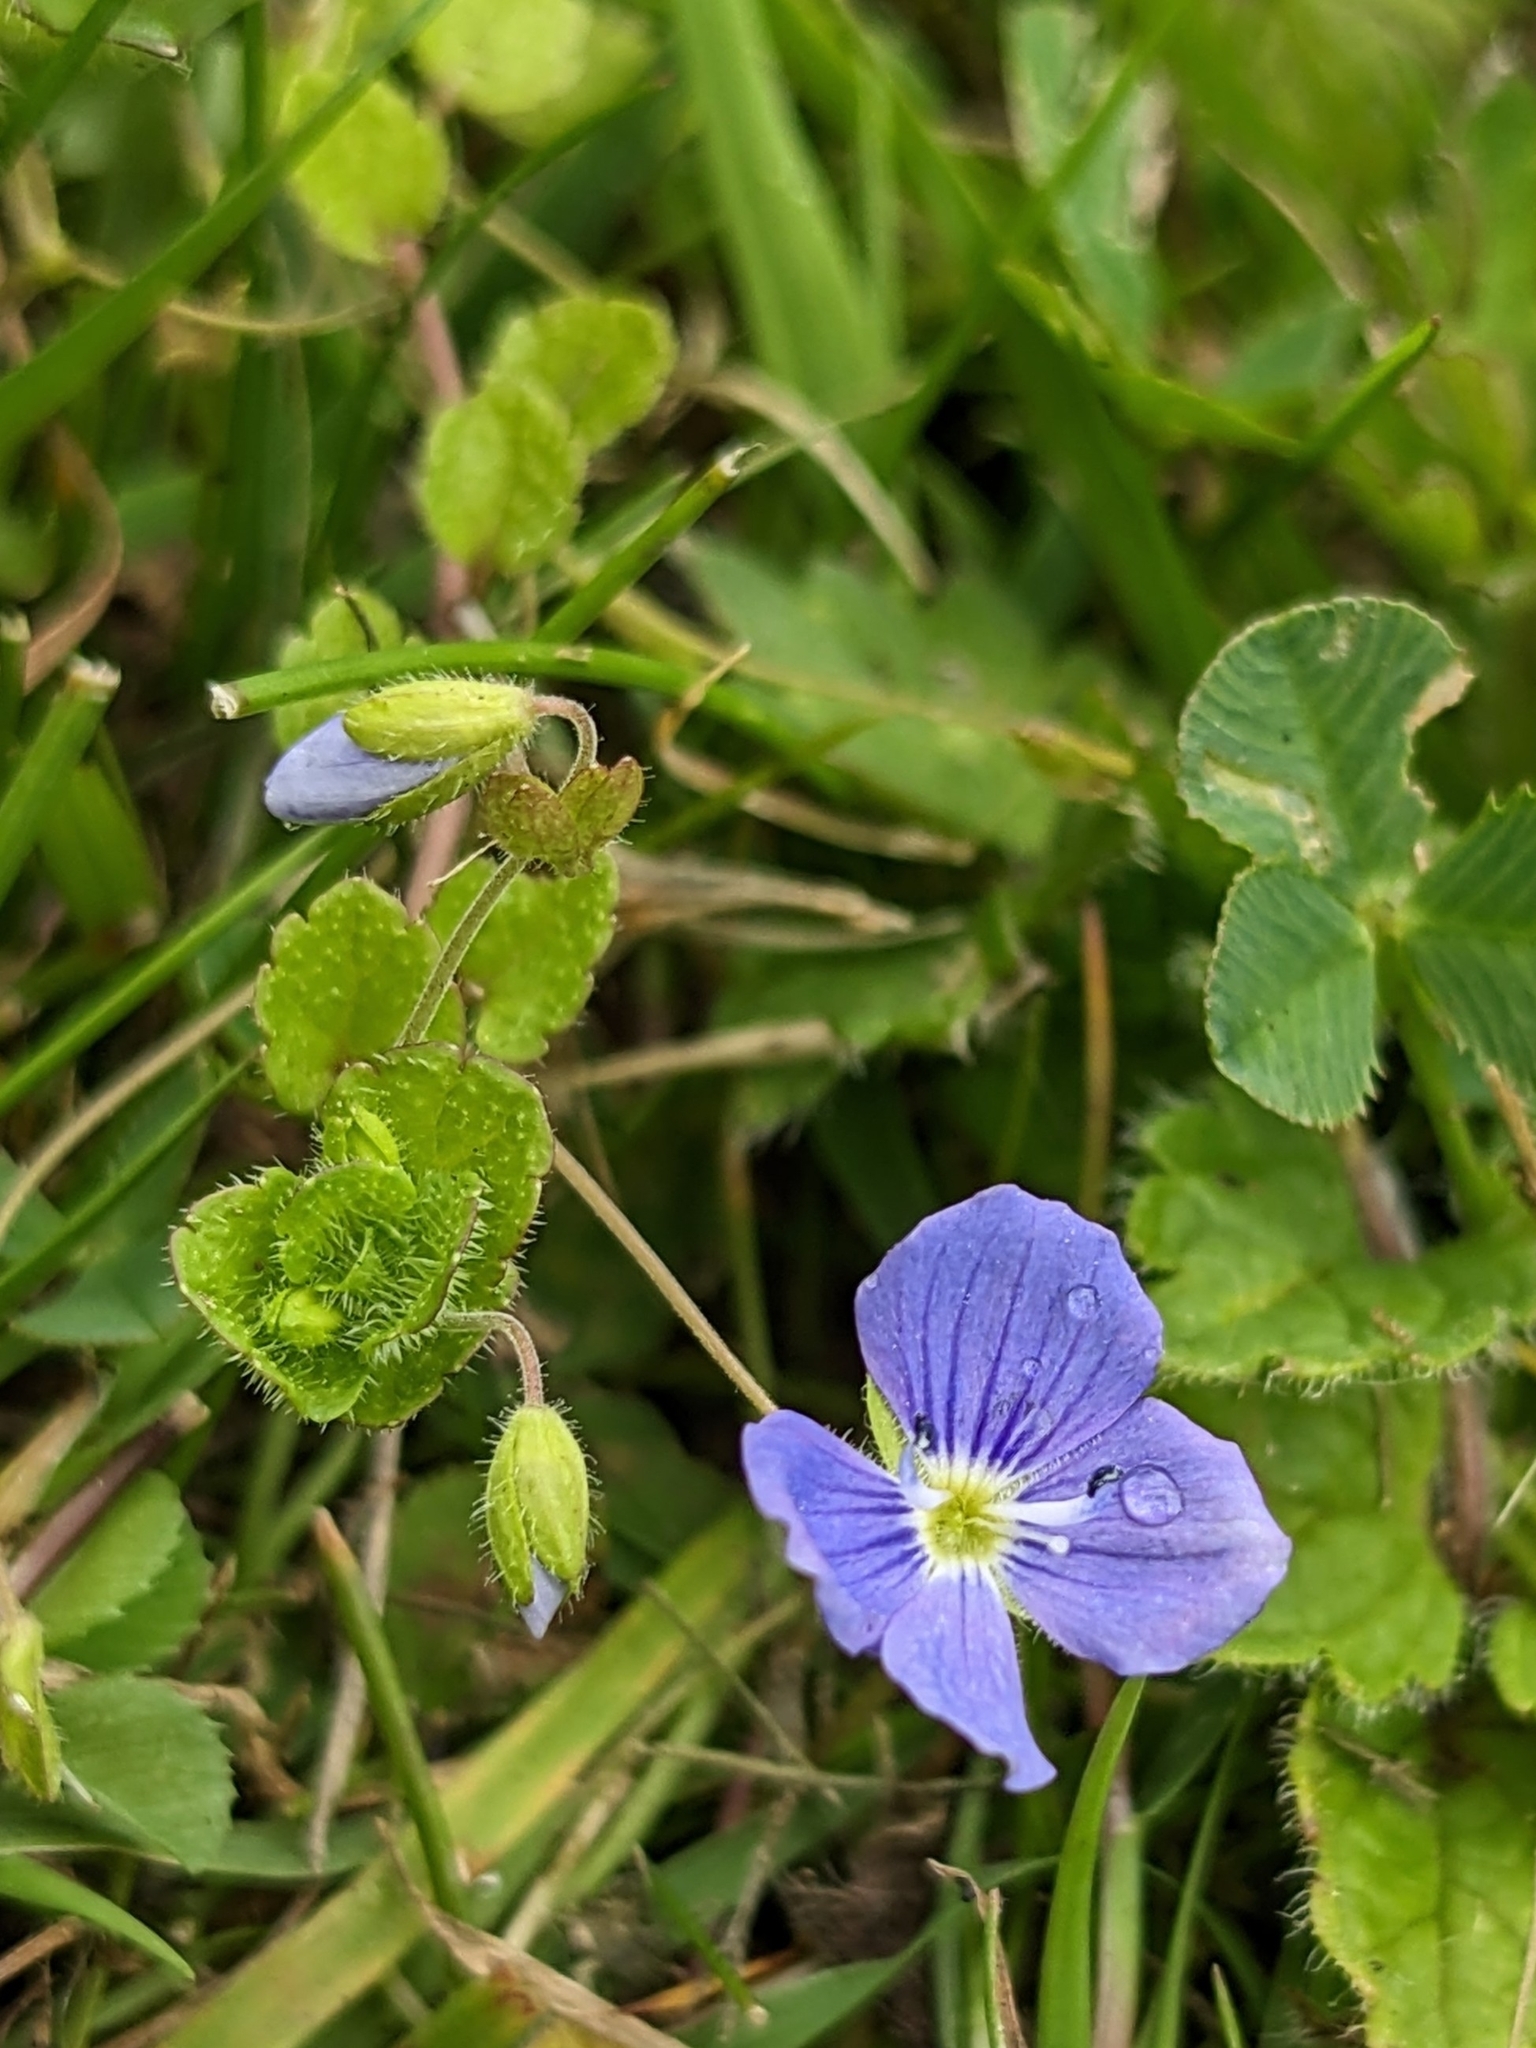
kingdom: Plantae
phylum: Tracheophyta
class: Magnoliopsida
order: Lamiales
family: Plantaginaceae
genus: Veronica
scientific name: Veronica filiformis
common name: Slender speedwell
